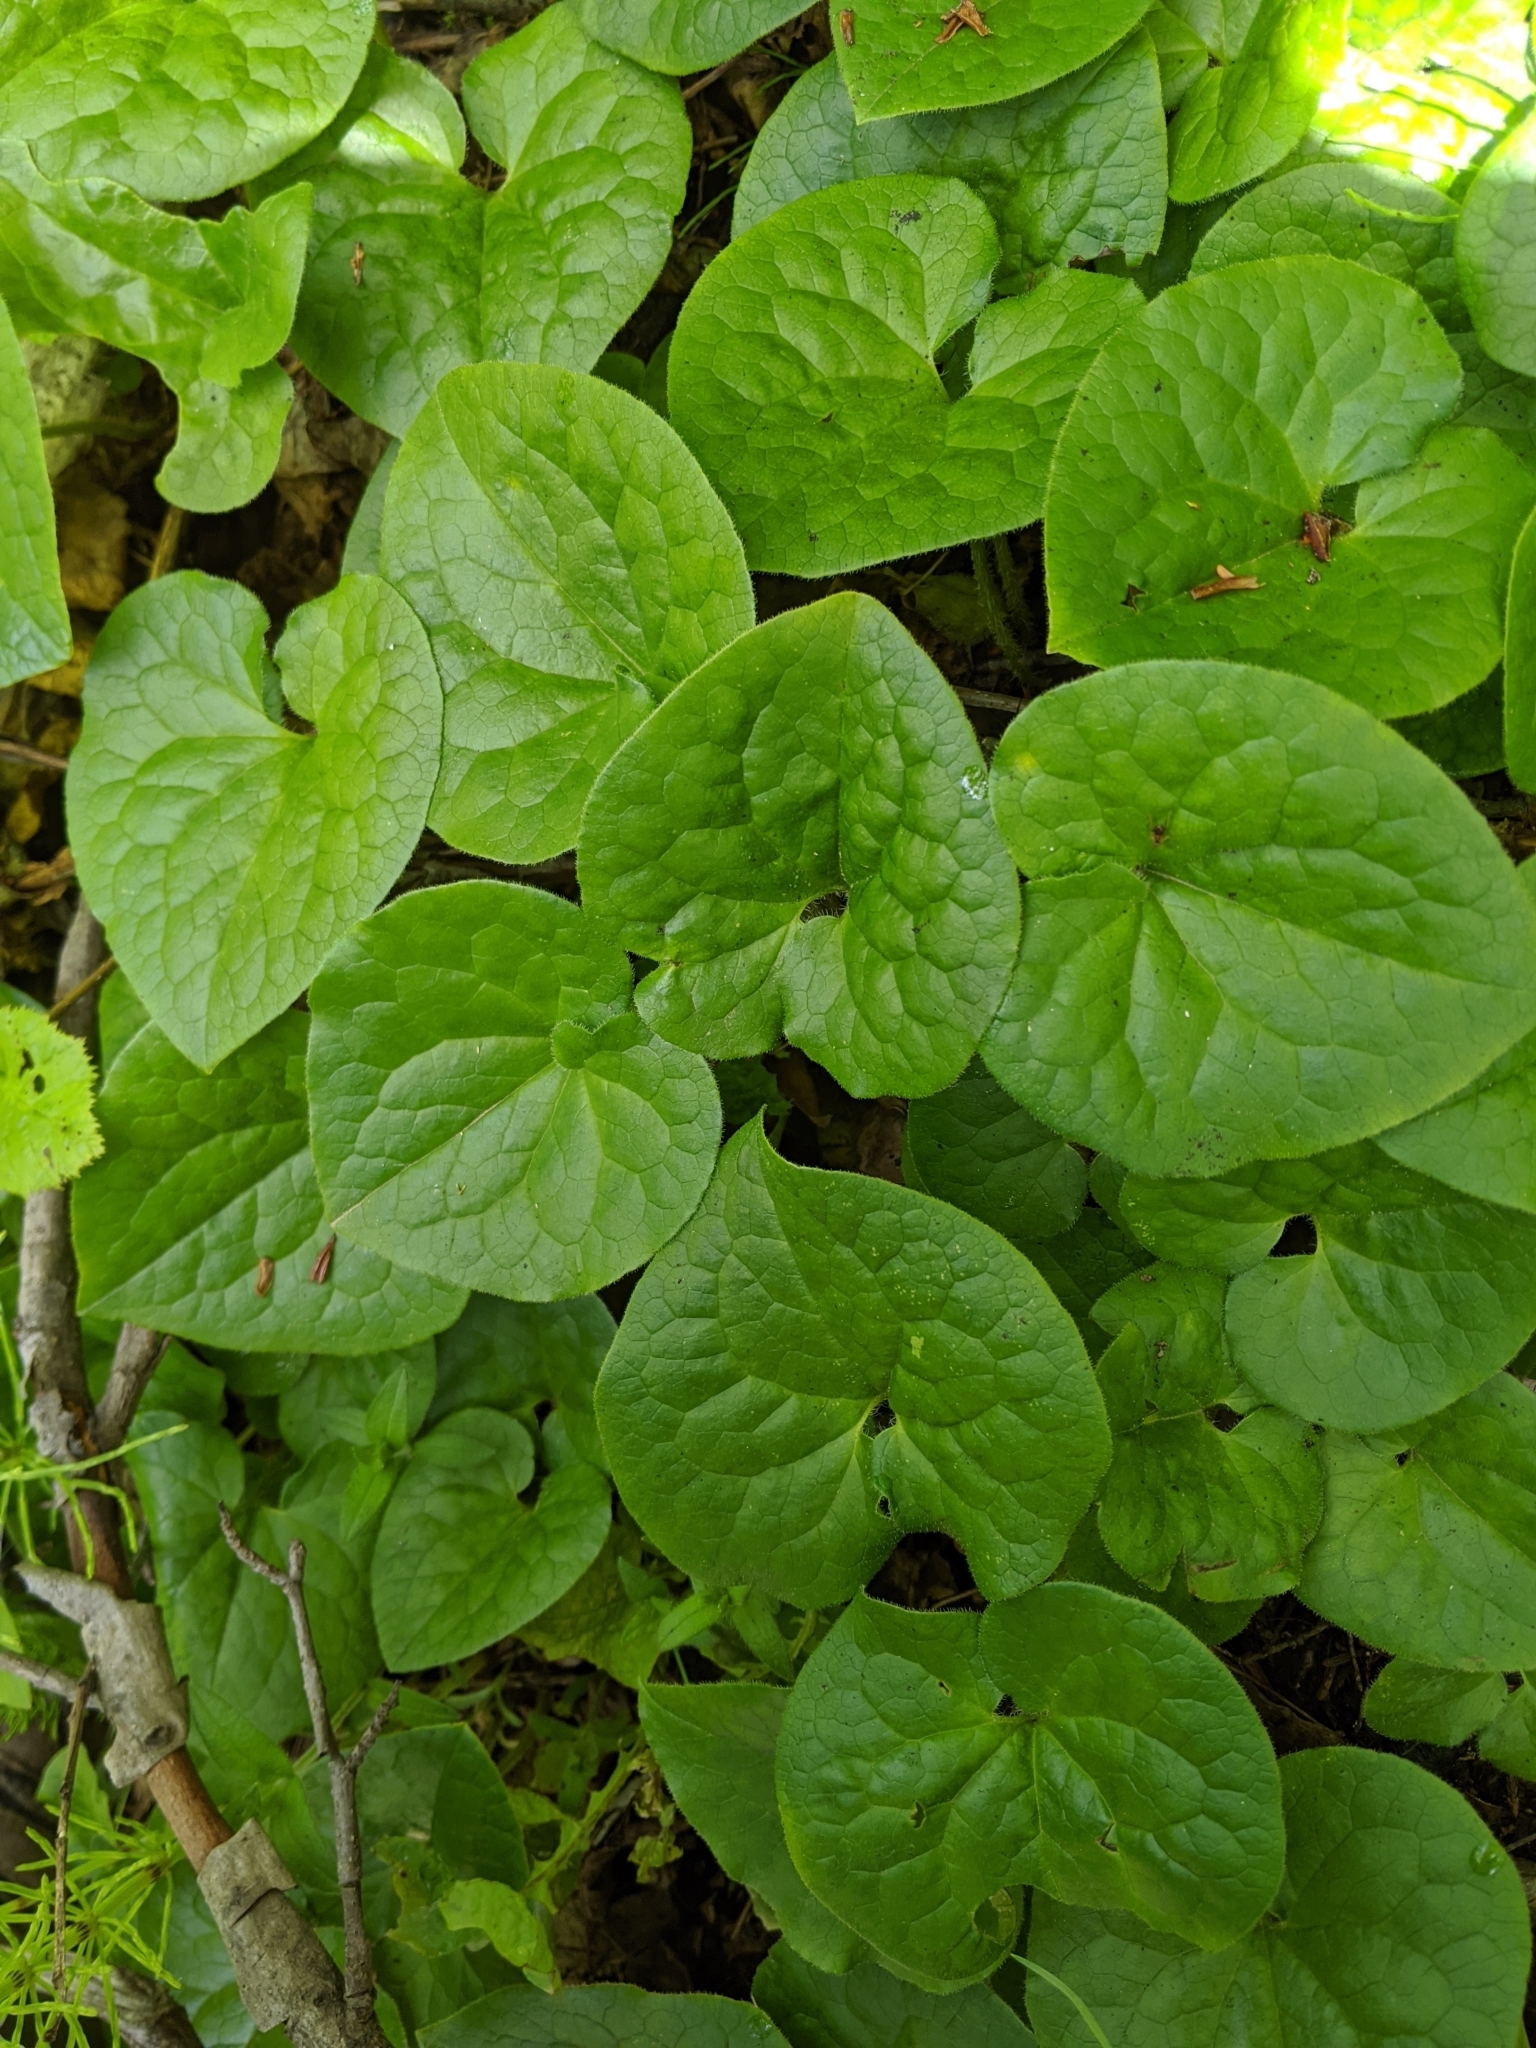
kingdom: Plantae
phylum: Tracheophyta
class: Magnoliopsida
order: Piperales
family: Aristolochiaceae
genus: Asarum
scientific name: Asarum caudatum
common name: Wild ginger
